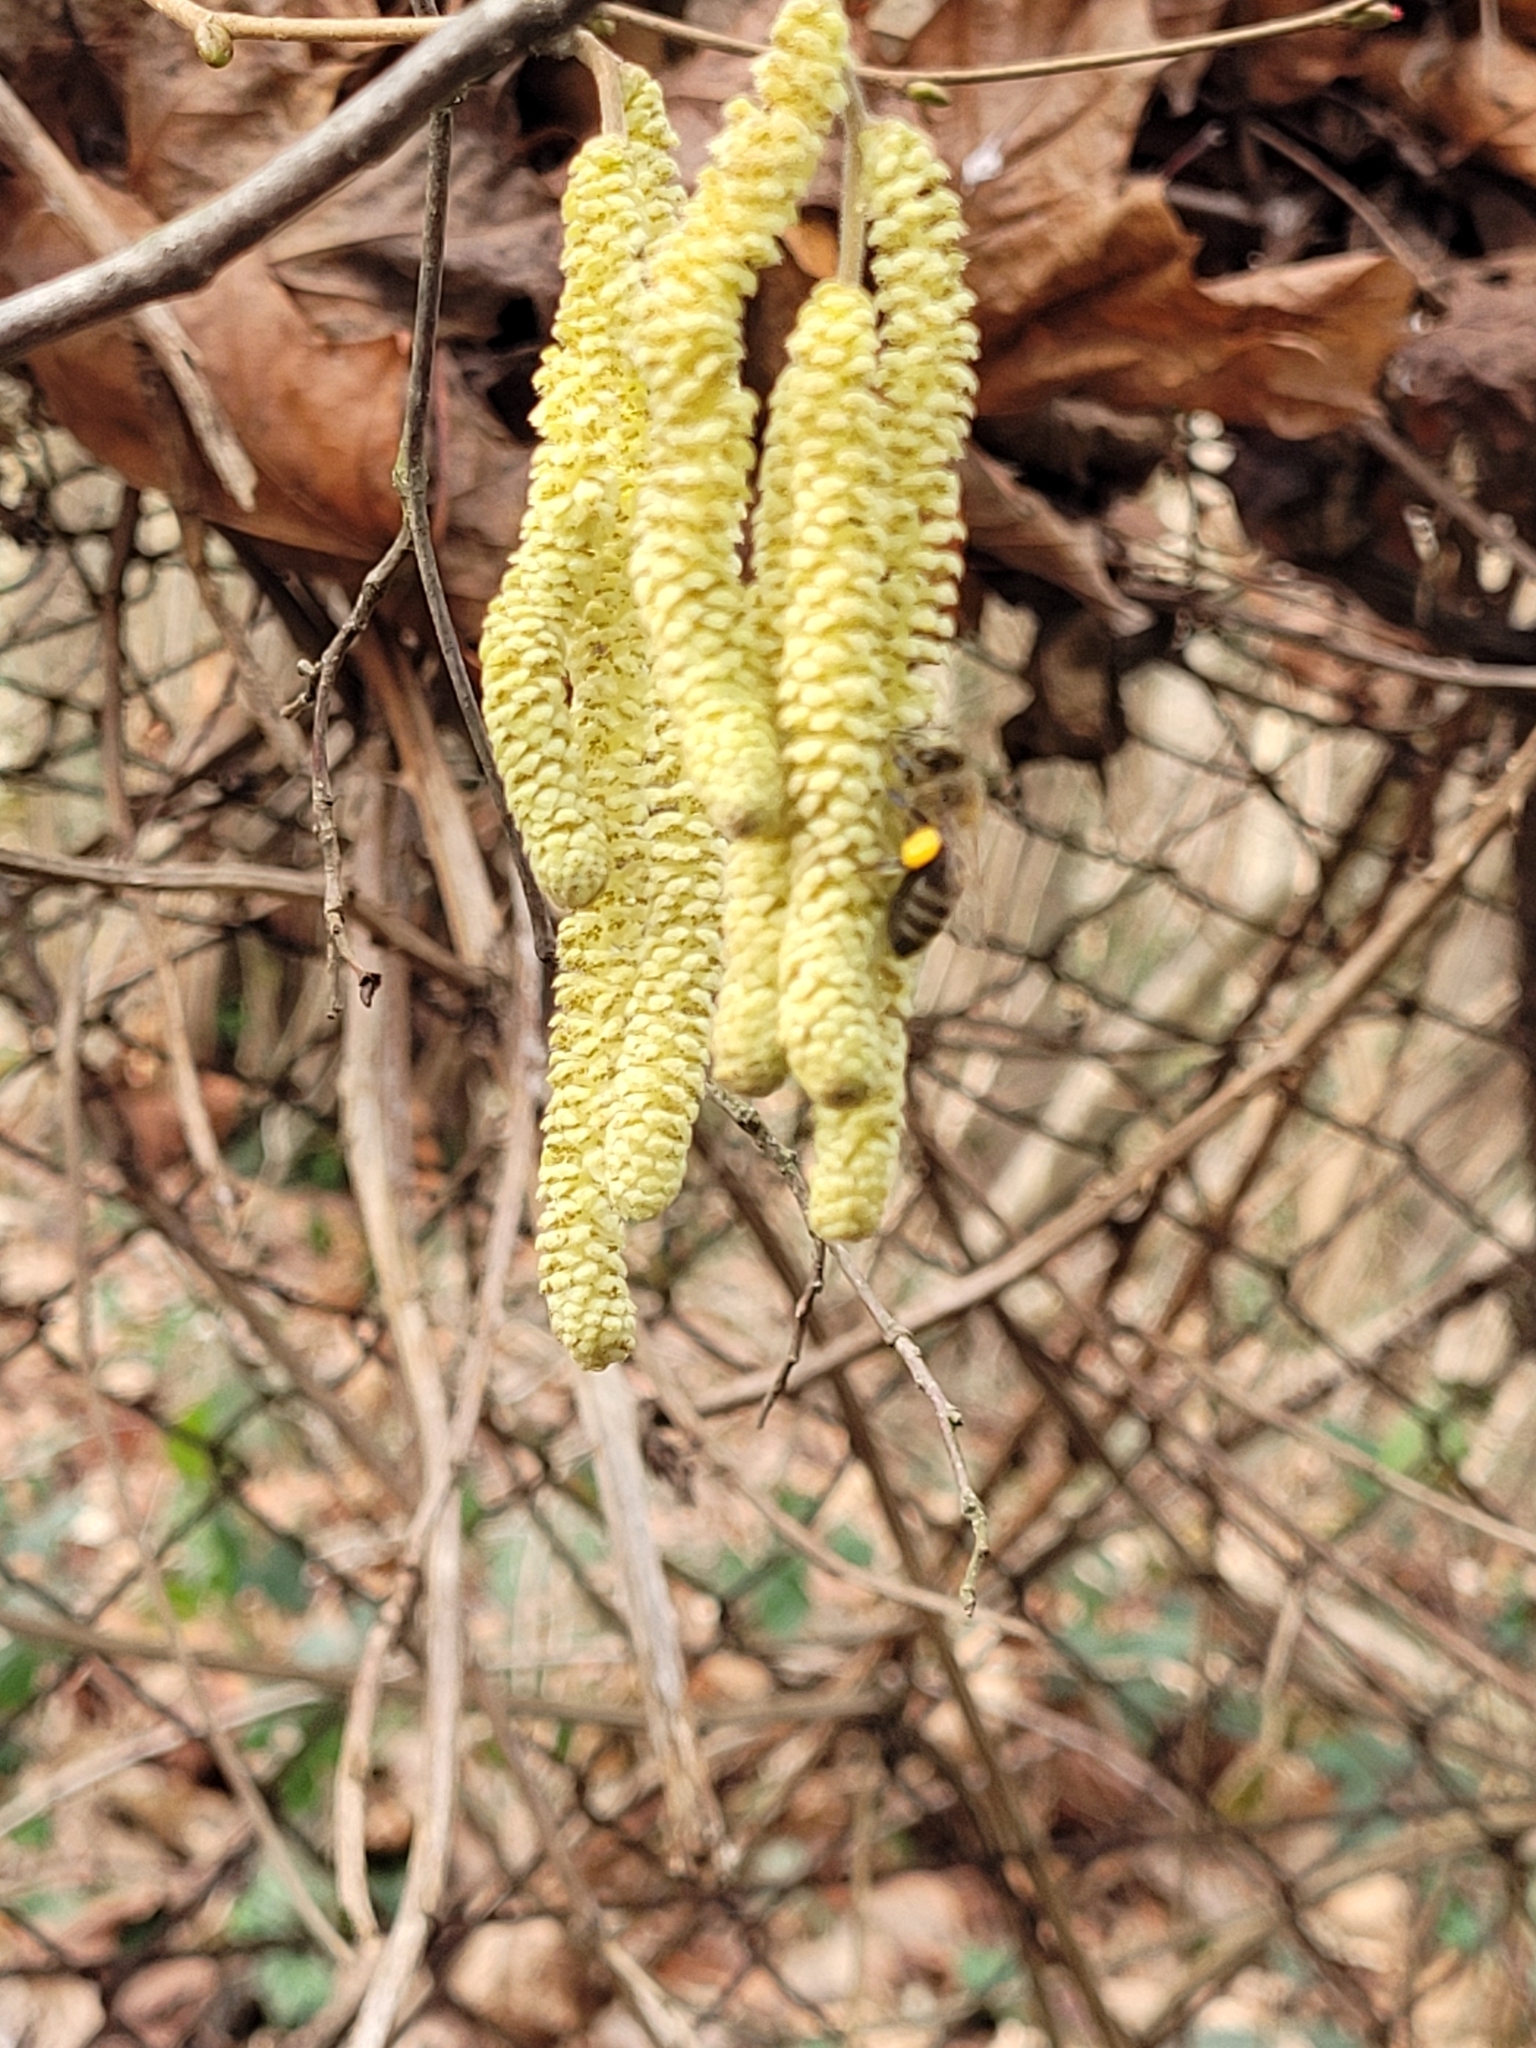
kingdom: Plantae
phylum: Tracheophyta
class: Magnoliopsida
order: Fagales
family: Betulaceae
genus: Corylus
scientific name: Corylus avellana
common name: European hazel
